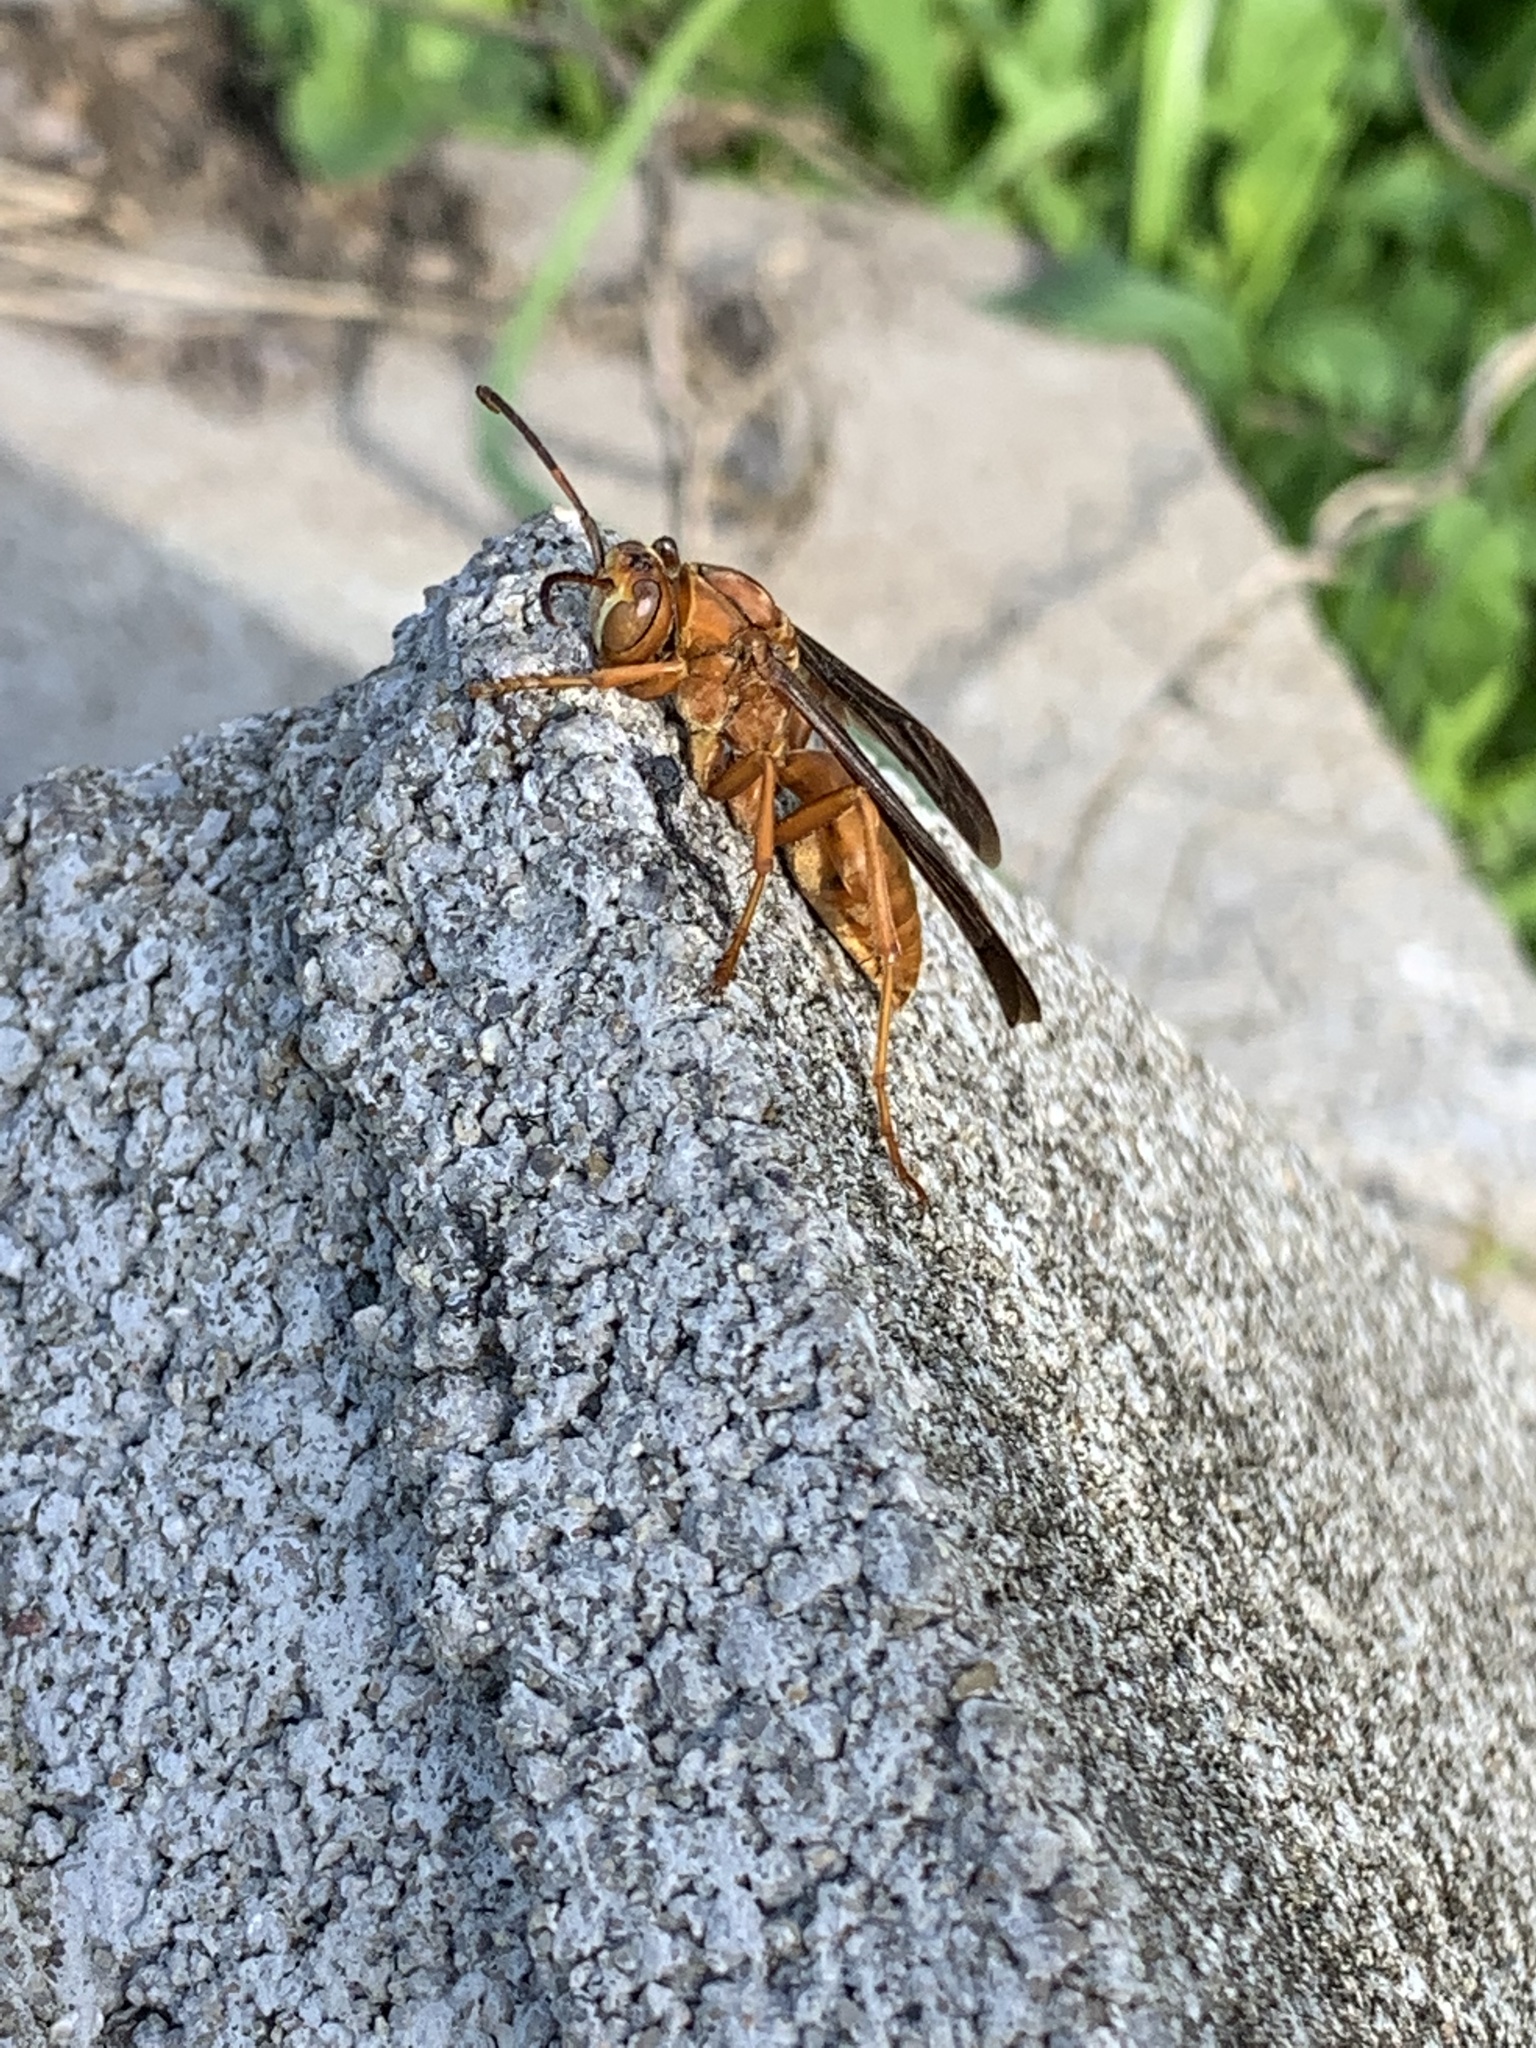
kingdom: Animalia
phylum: Arthropoda
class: Insecta
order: Hymenoptera
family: Vespidae
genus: Fuscopolistes
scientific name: Fuscopolistes
